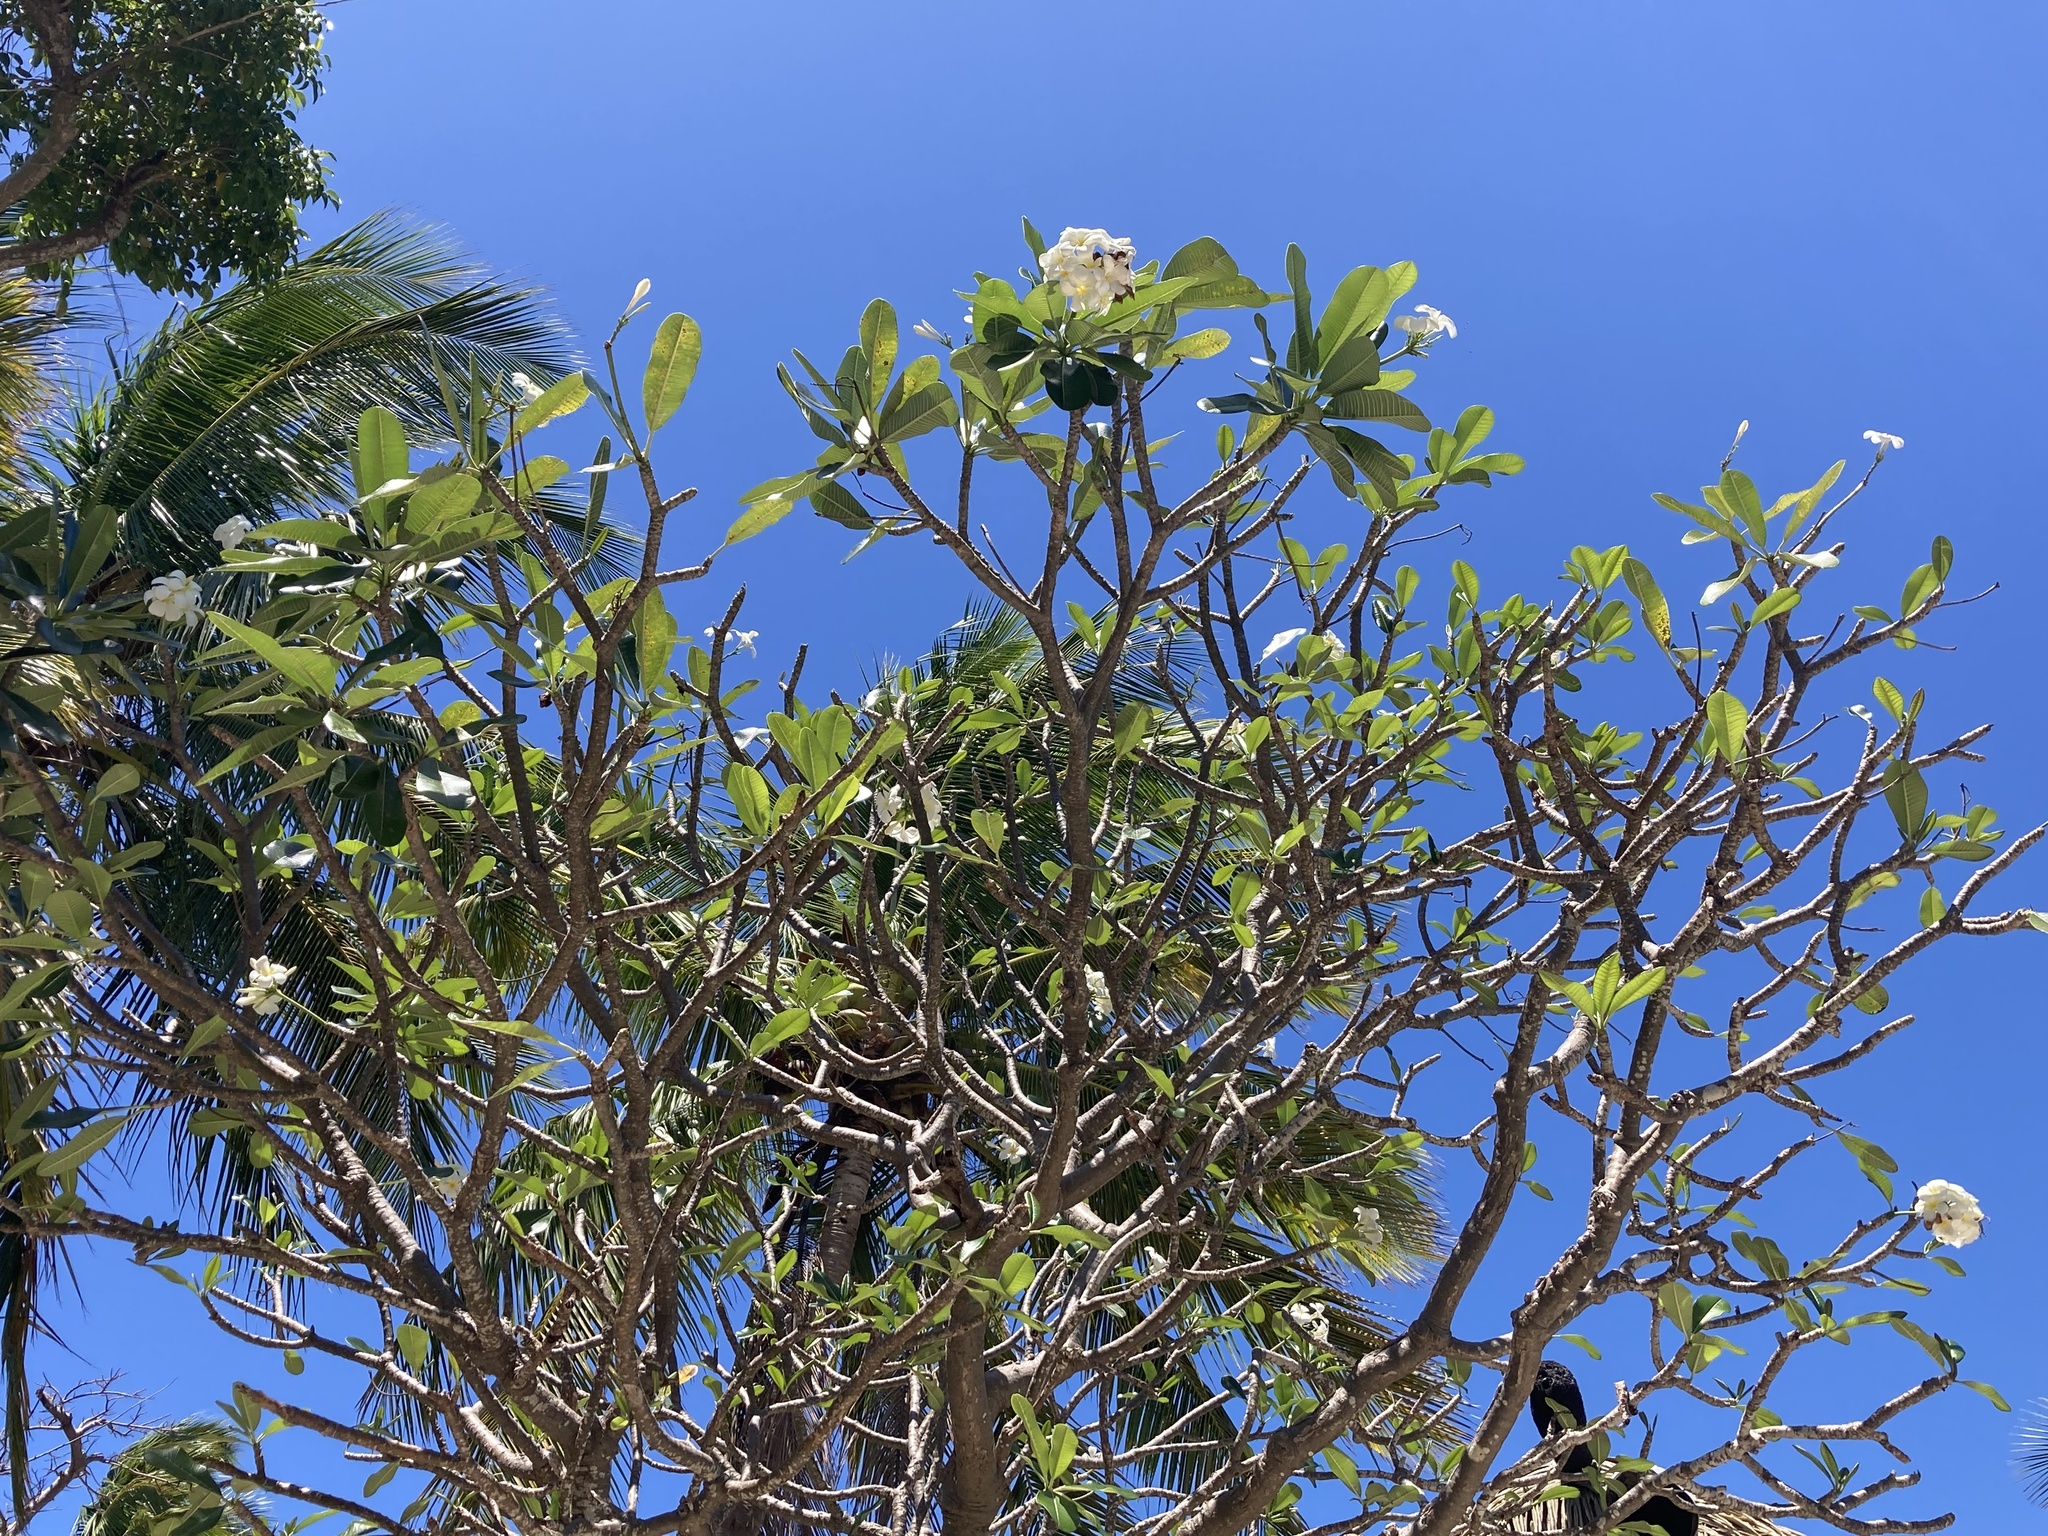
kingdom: Plantae
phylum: Tracheophyta
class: Magnoliopsida
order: Gentianales
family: Apocynaceae
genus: Plumeria
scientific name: Plumeria obtusa
